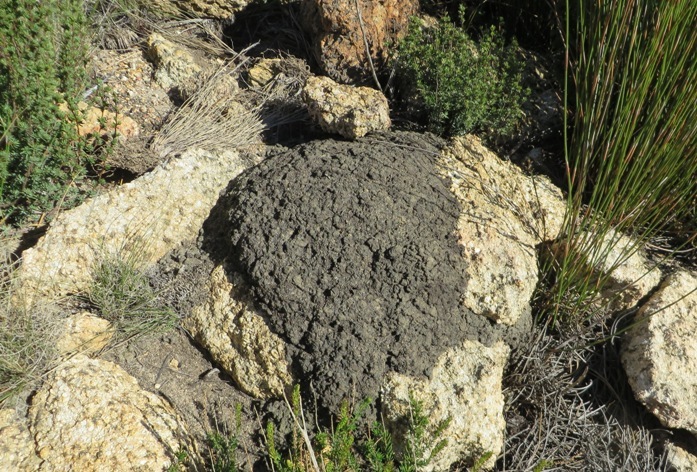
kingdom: Animalia
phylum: Arthropoda
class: Insecta
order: Blattodea
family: Termitidae
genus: Amitermes
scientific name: Amitermes hastatus
